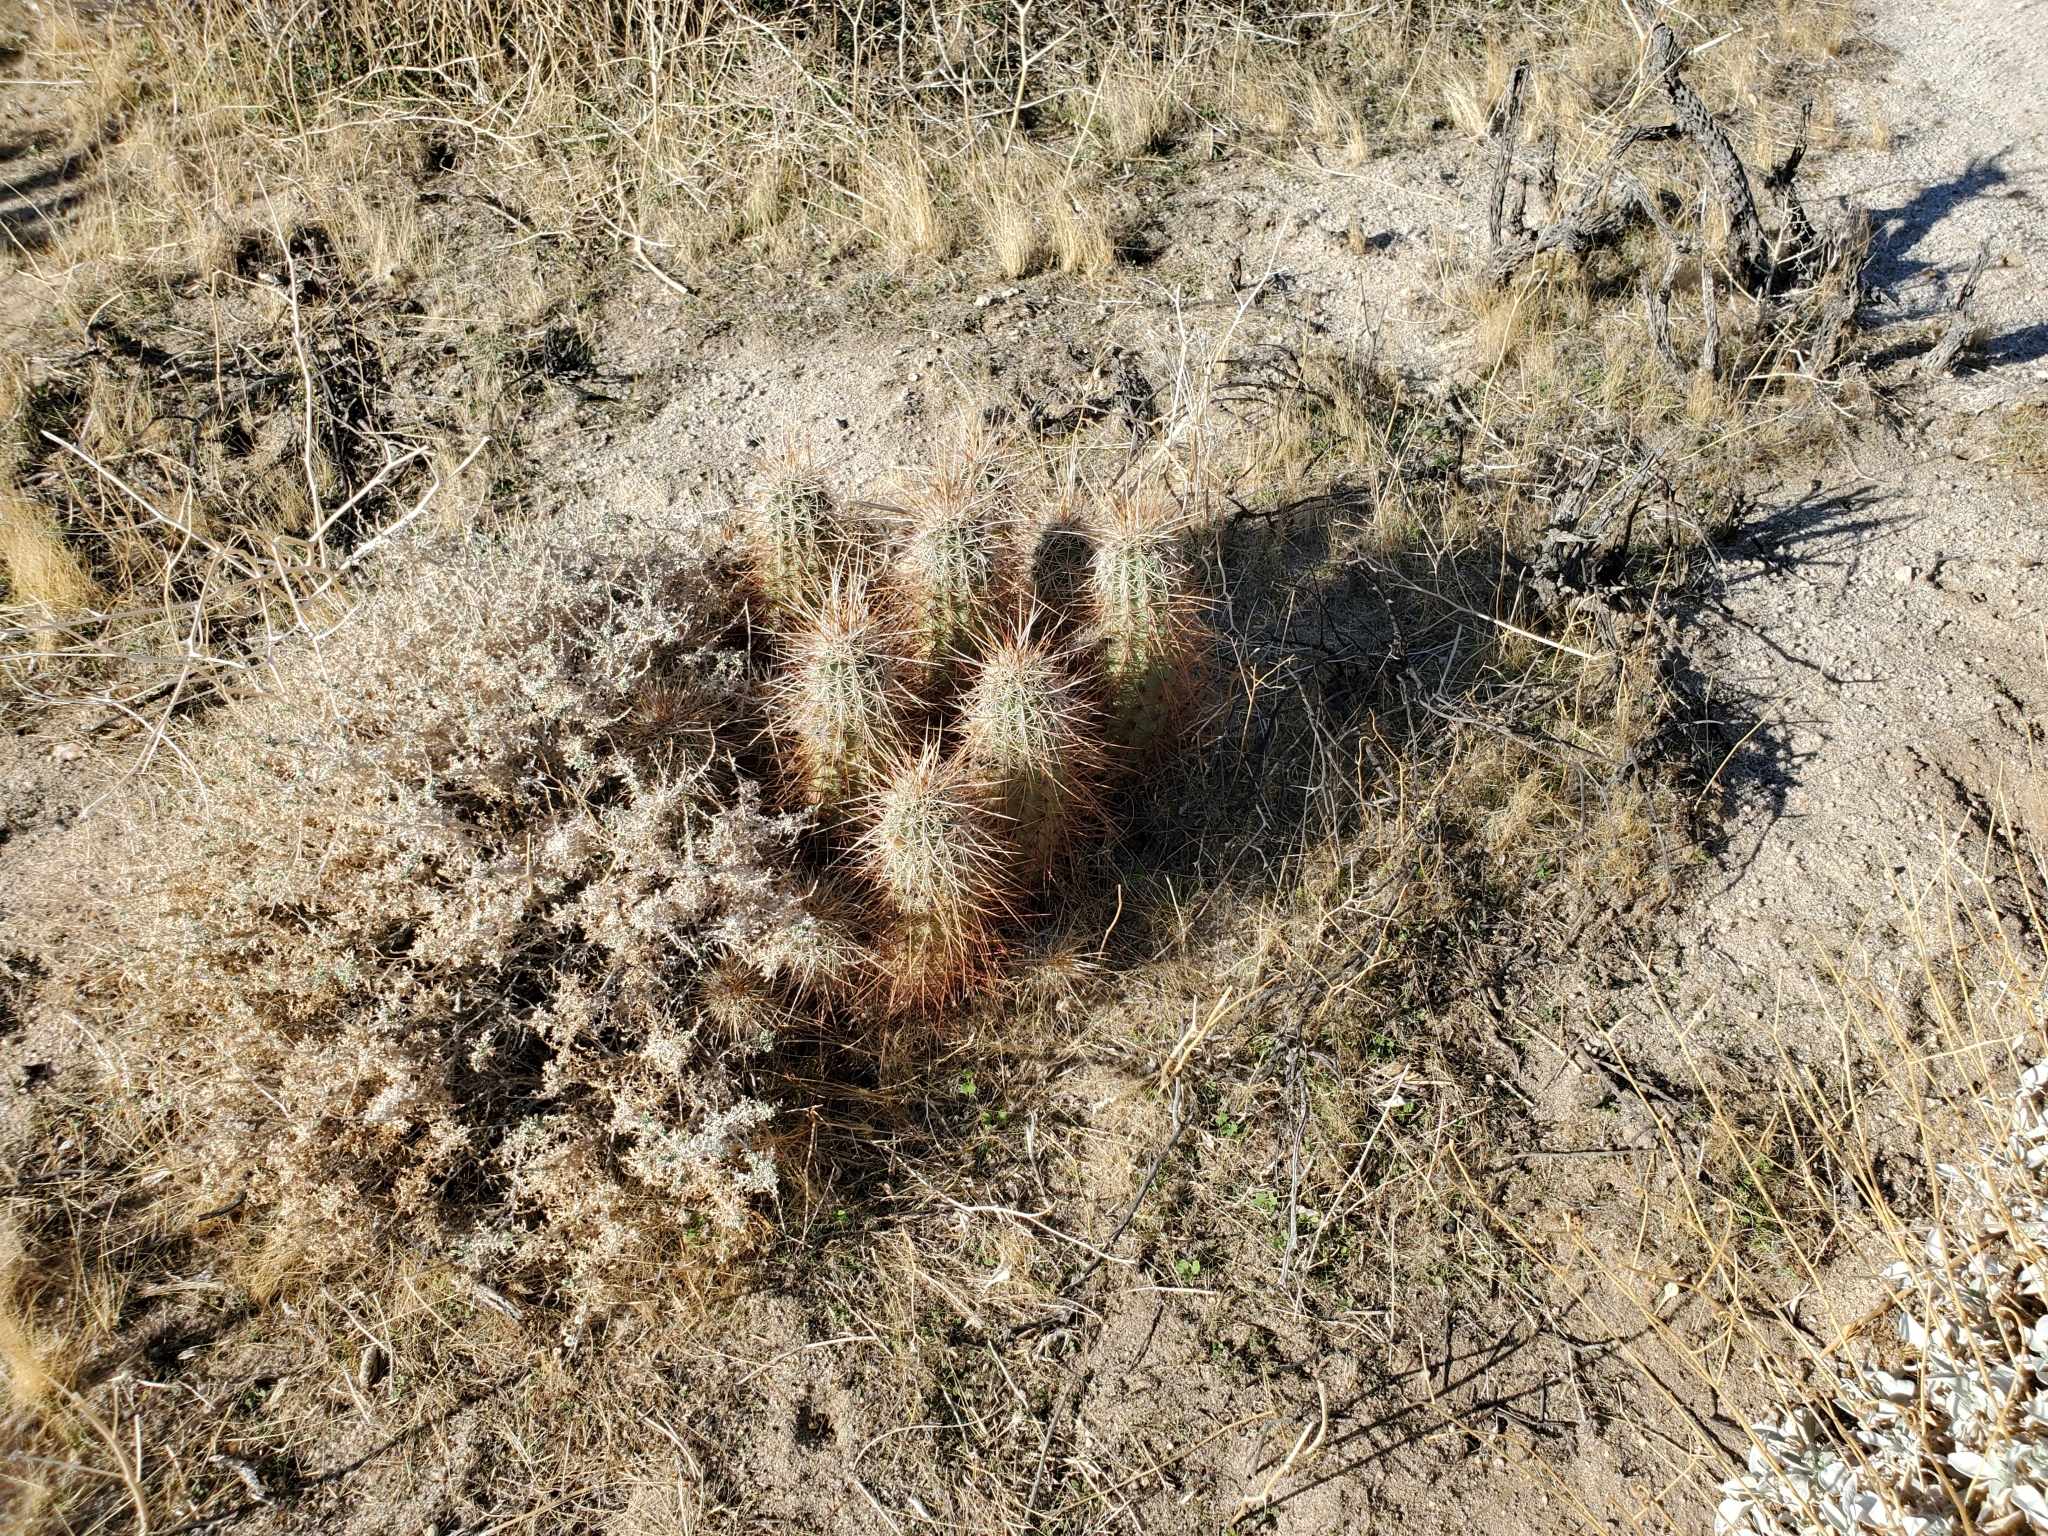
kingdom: Plantae
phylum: Tracheophyta
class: Magnoliopsida
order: Caryophyllales
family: Cactaceae
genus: Echinocereus
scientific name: Echinocereus engelmannii
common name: Engelmann's hedgehog cactus
